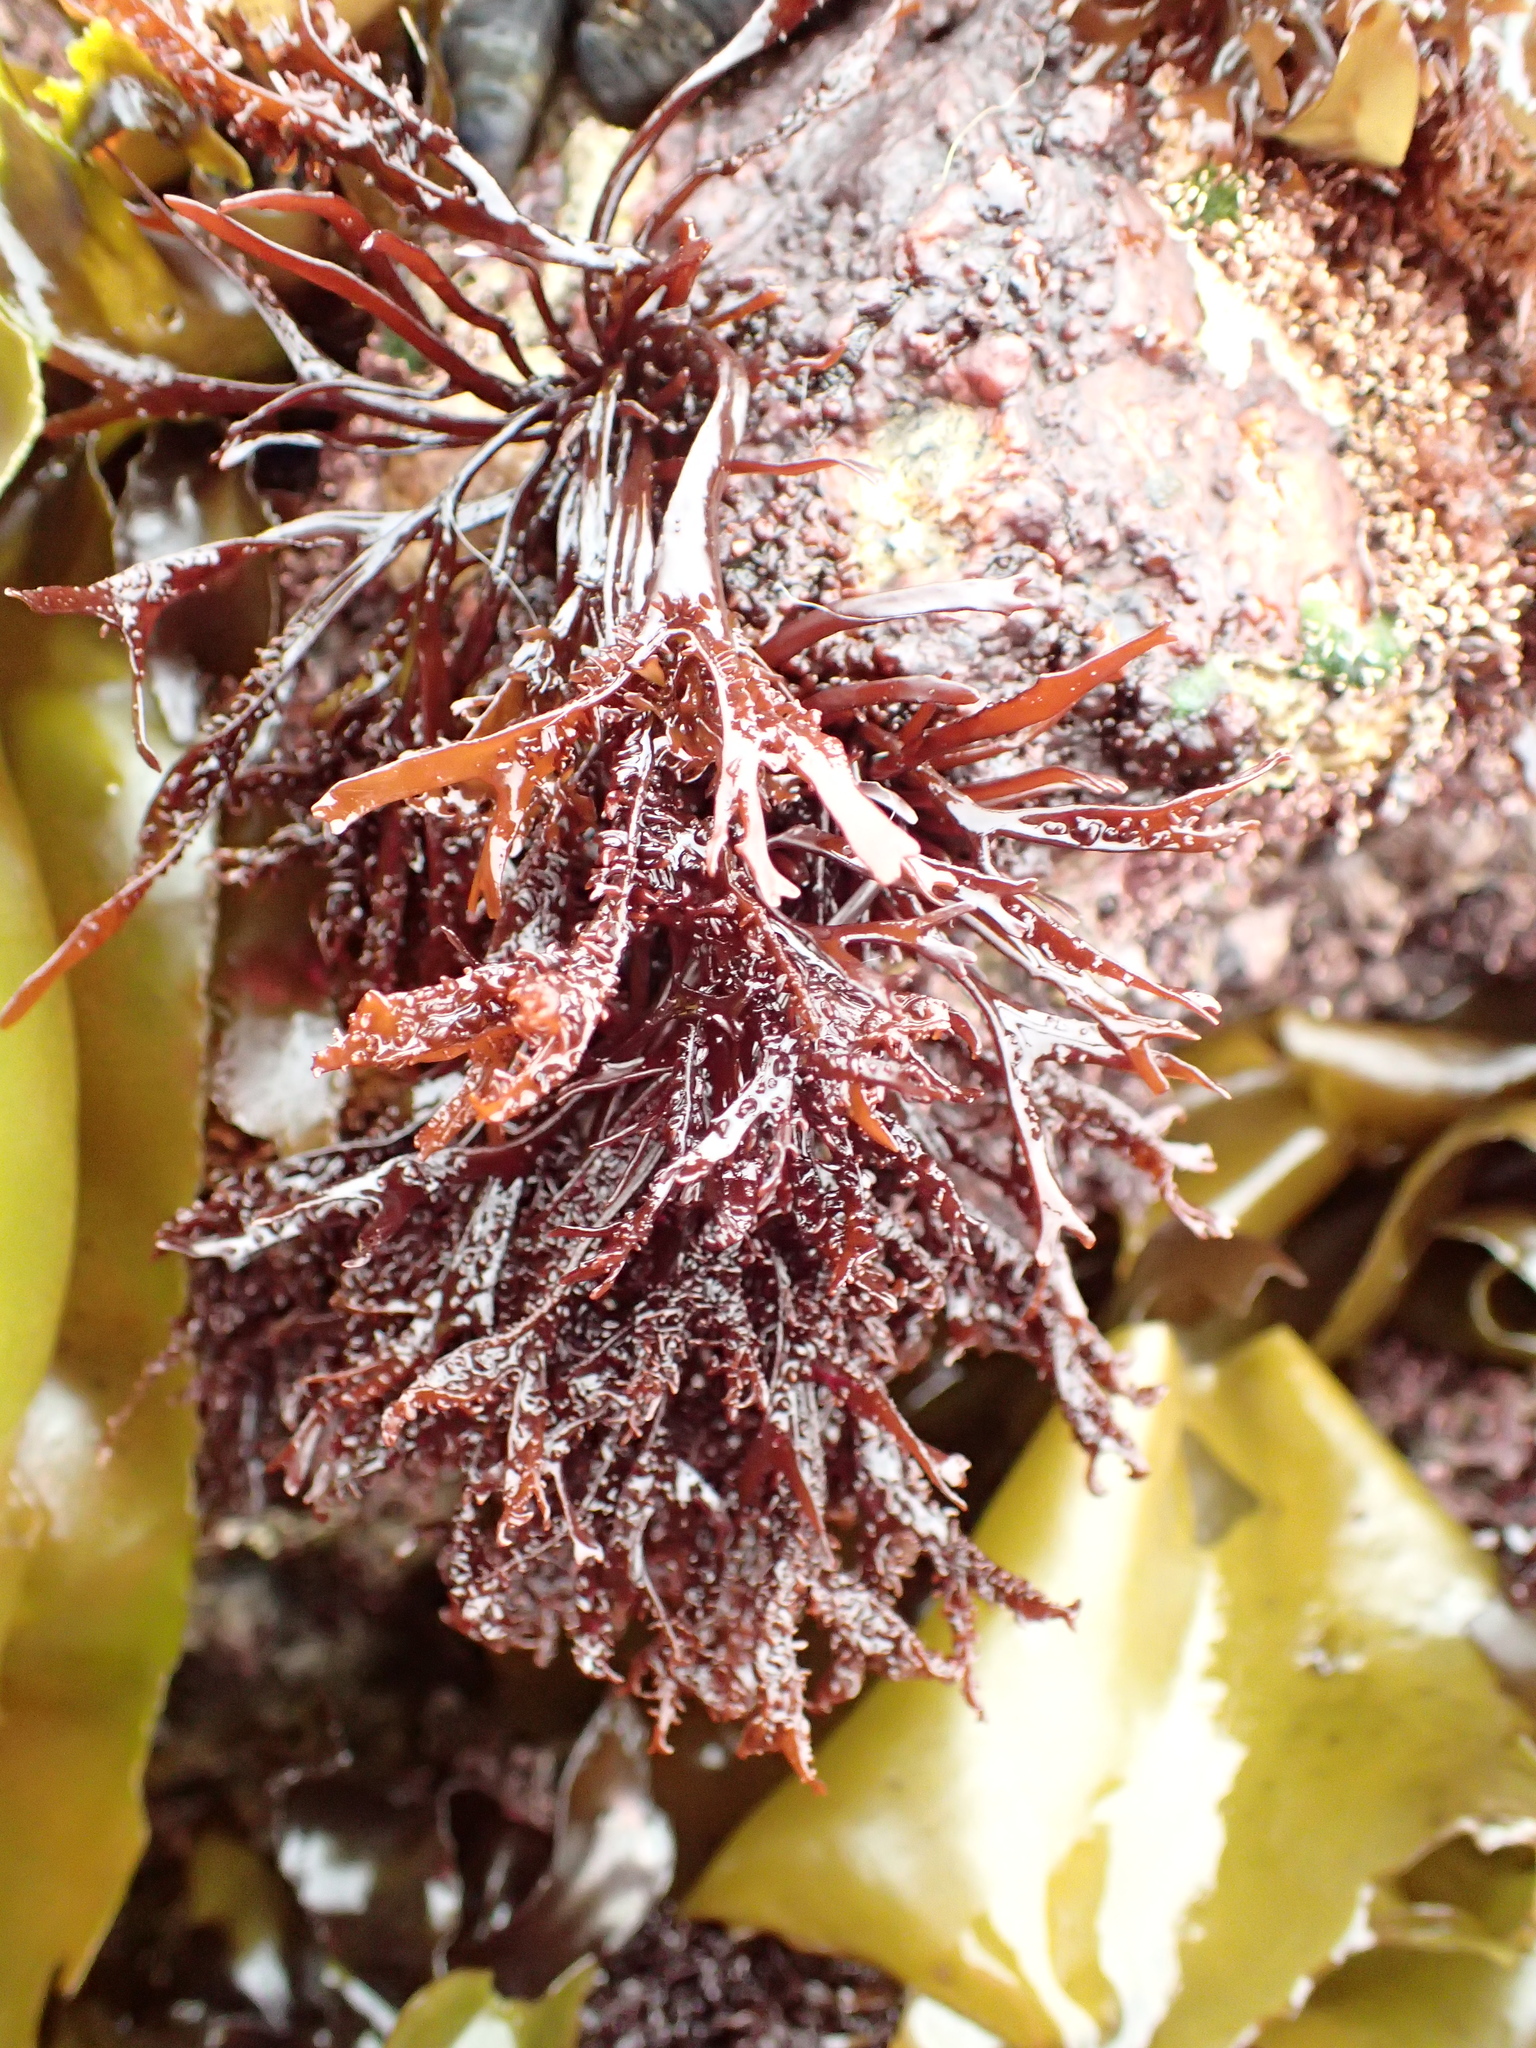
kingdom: Plantae
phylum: Rhodophyta
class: Florideophyceae
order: Gigartinales
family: Phyllophoraceae
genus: Mastocarpus
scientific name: Mastocarpus jardinii
